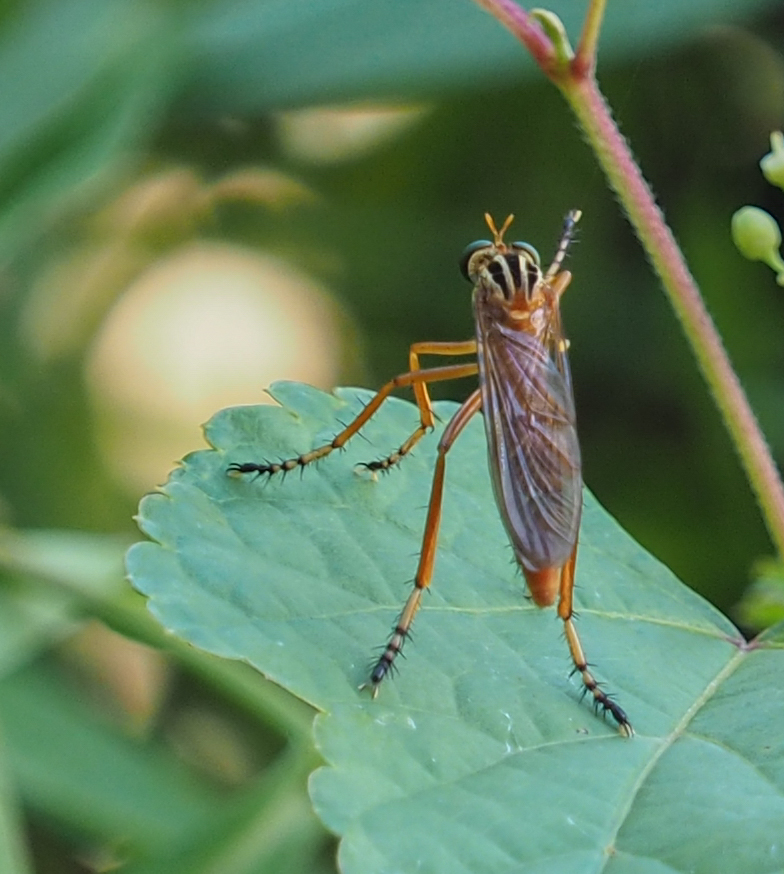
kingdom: Animalia
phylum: Arthropoda
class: Insecta
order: Diptera
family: Asilidae
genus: Diogmites
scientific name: Diogmites neoternatus
